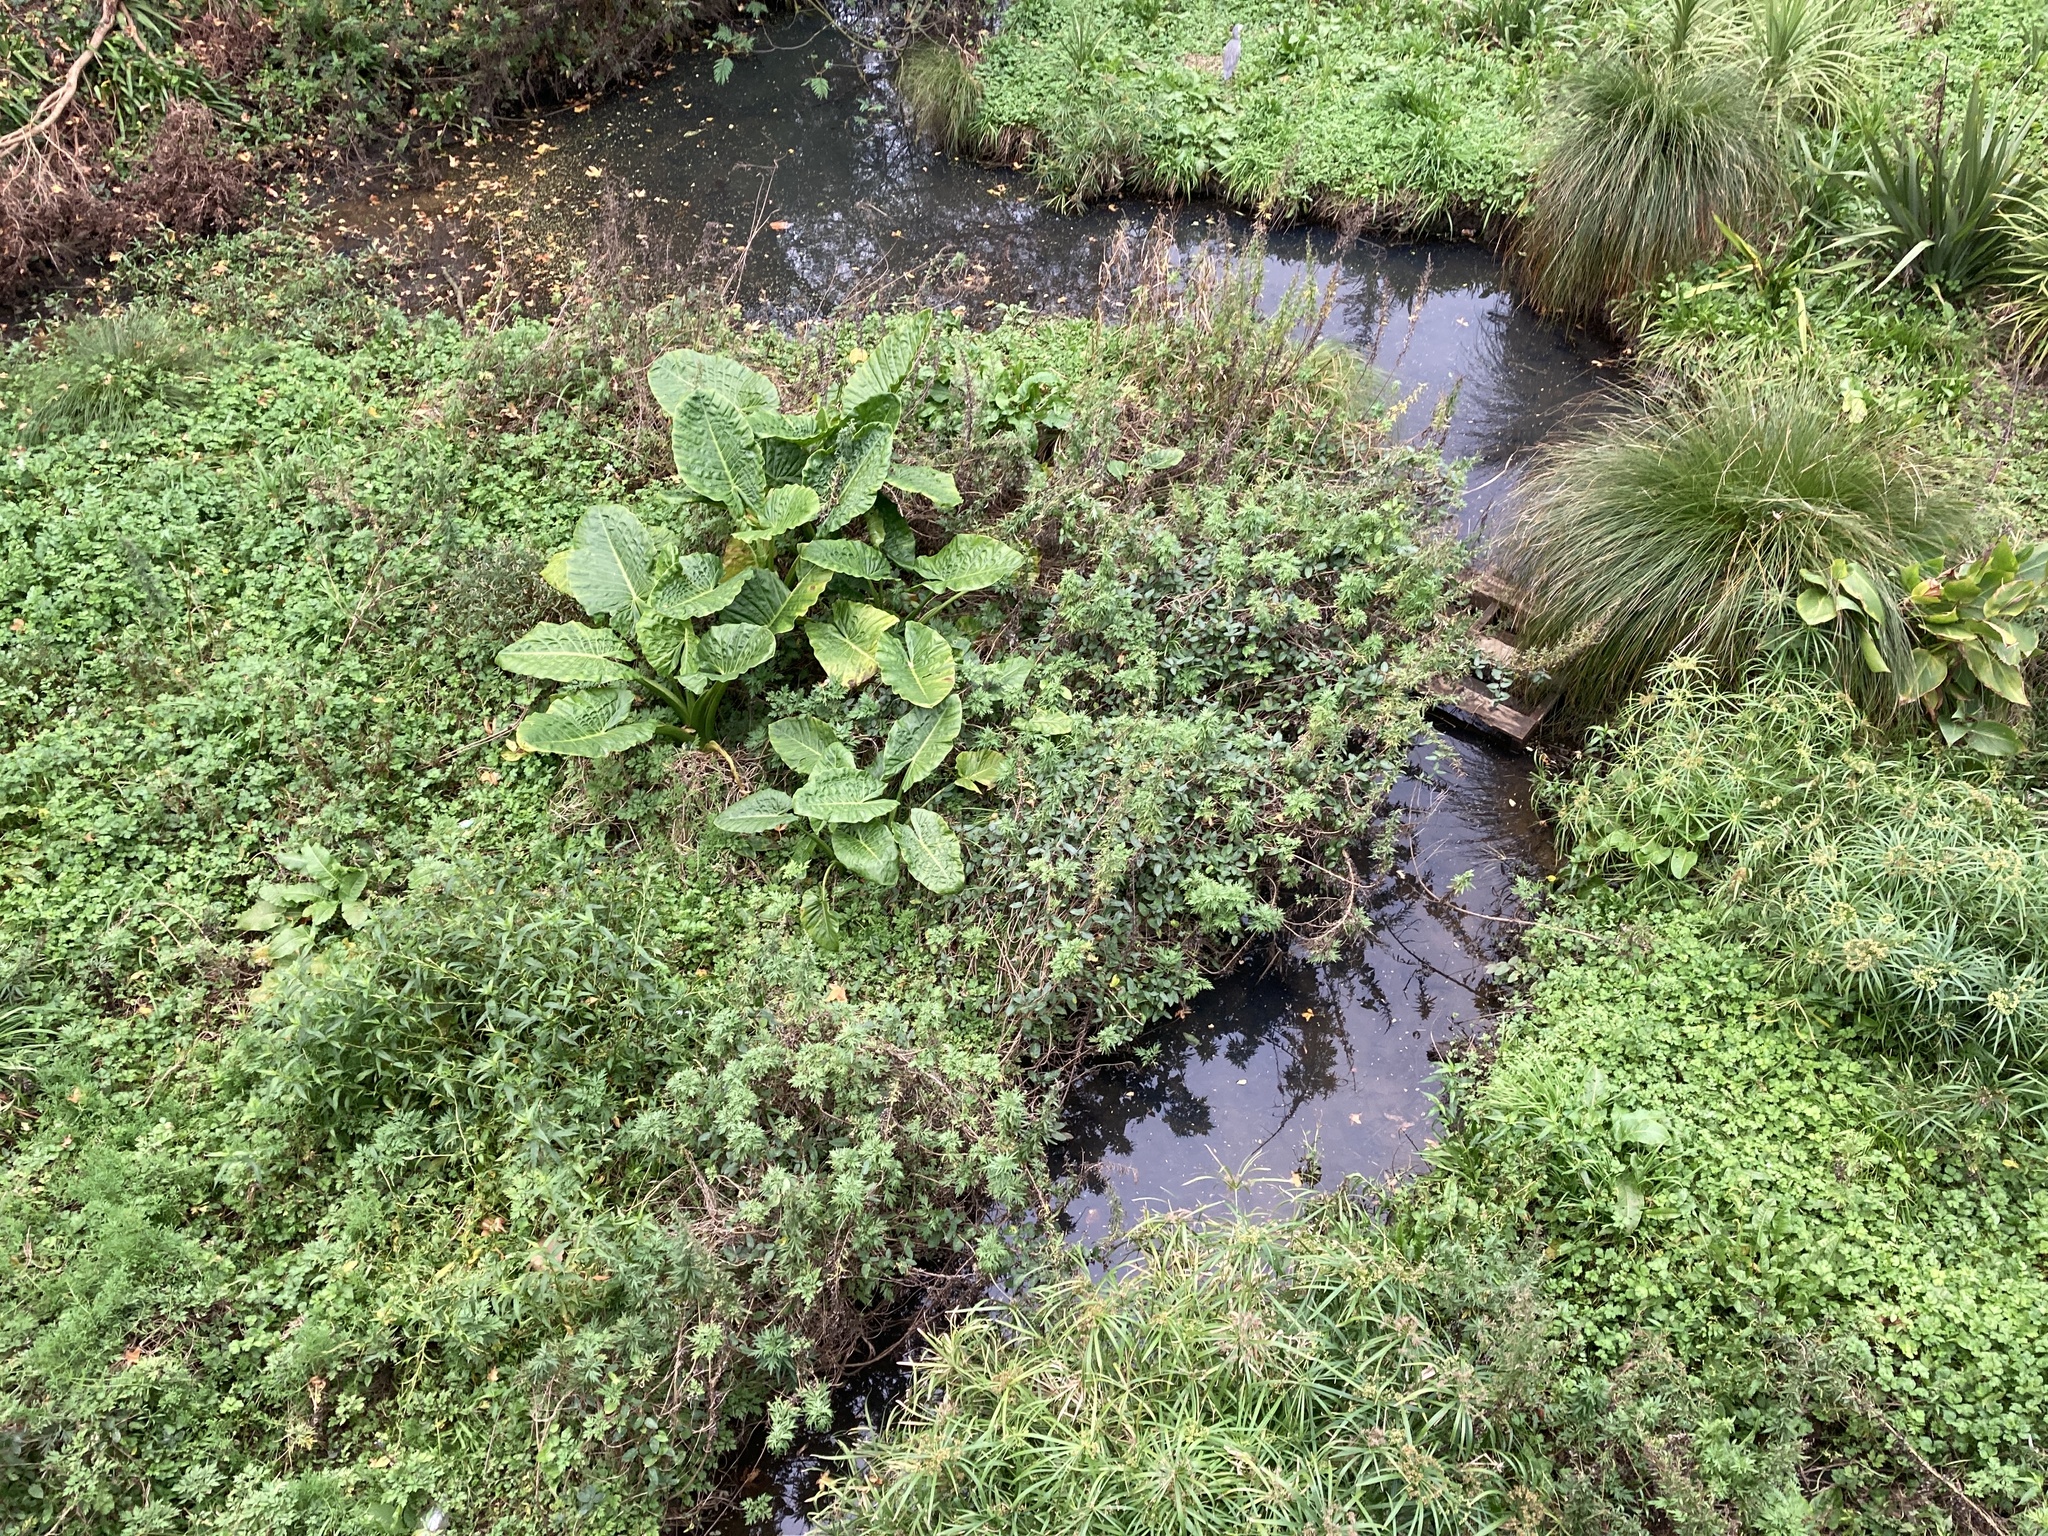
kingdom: Plantae
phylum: Tracheophyta
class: Liliopsida
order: Alismatales
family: Araceae
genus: Alocasia
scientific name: Alocasia brisbanensis
